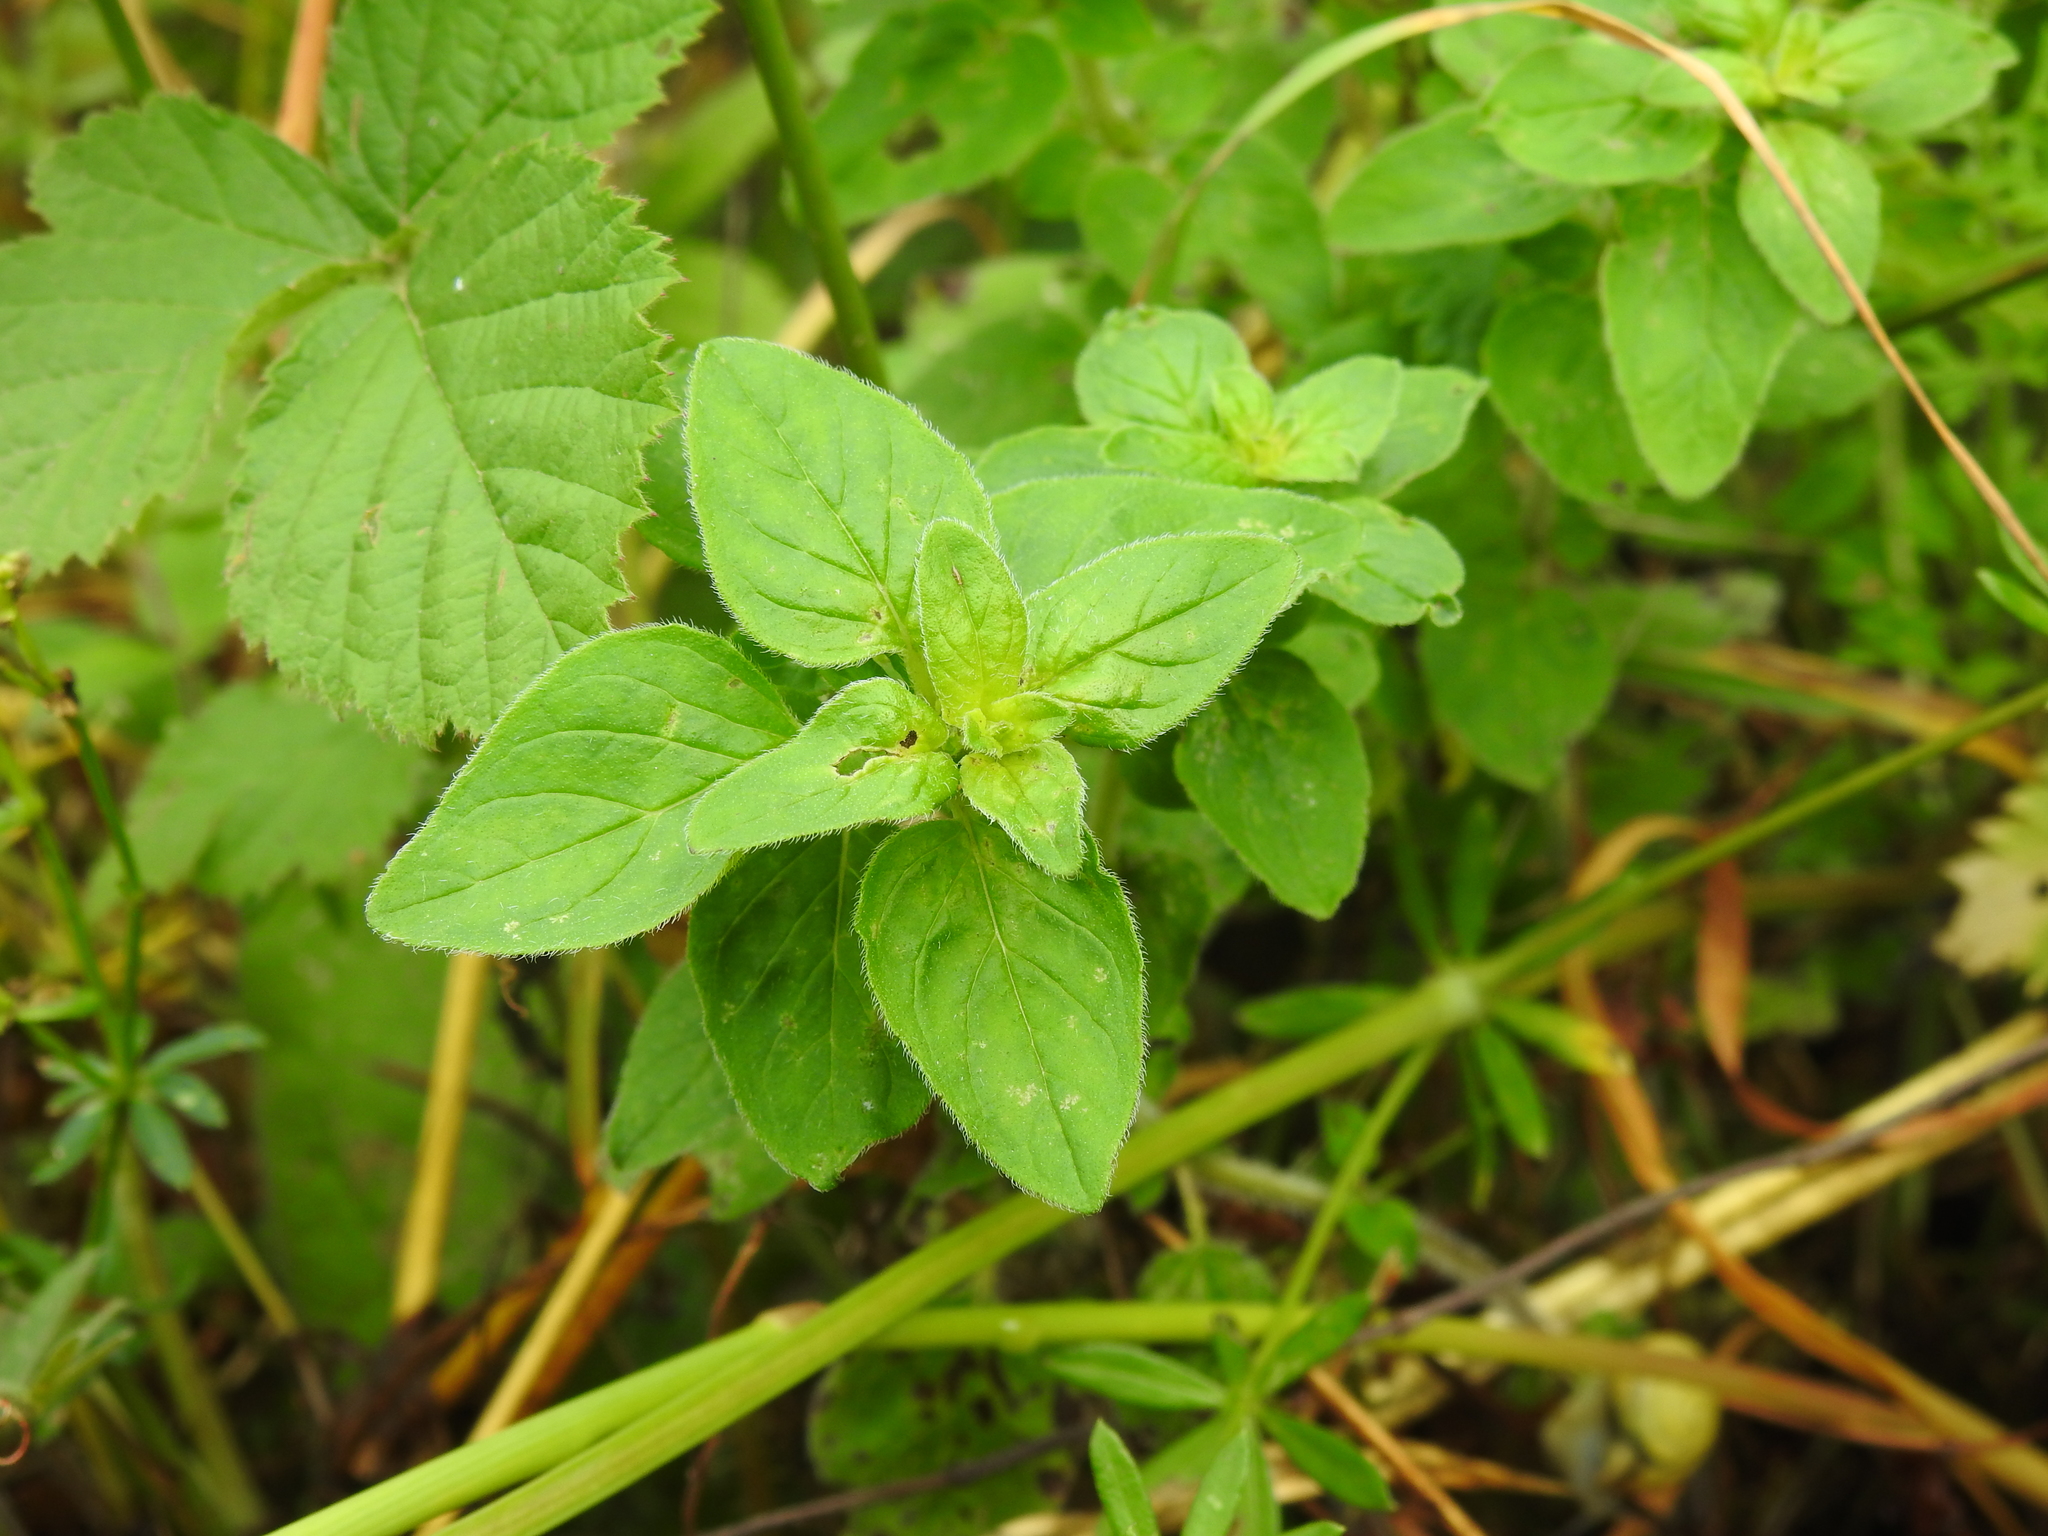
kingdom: Plantae
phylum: Tracheophyta
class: Magnoliopsida
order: Lamiales
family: Lamiaceae
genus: Origanum
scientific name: Origanum vulgare
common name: Wild marjoram
